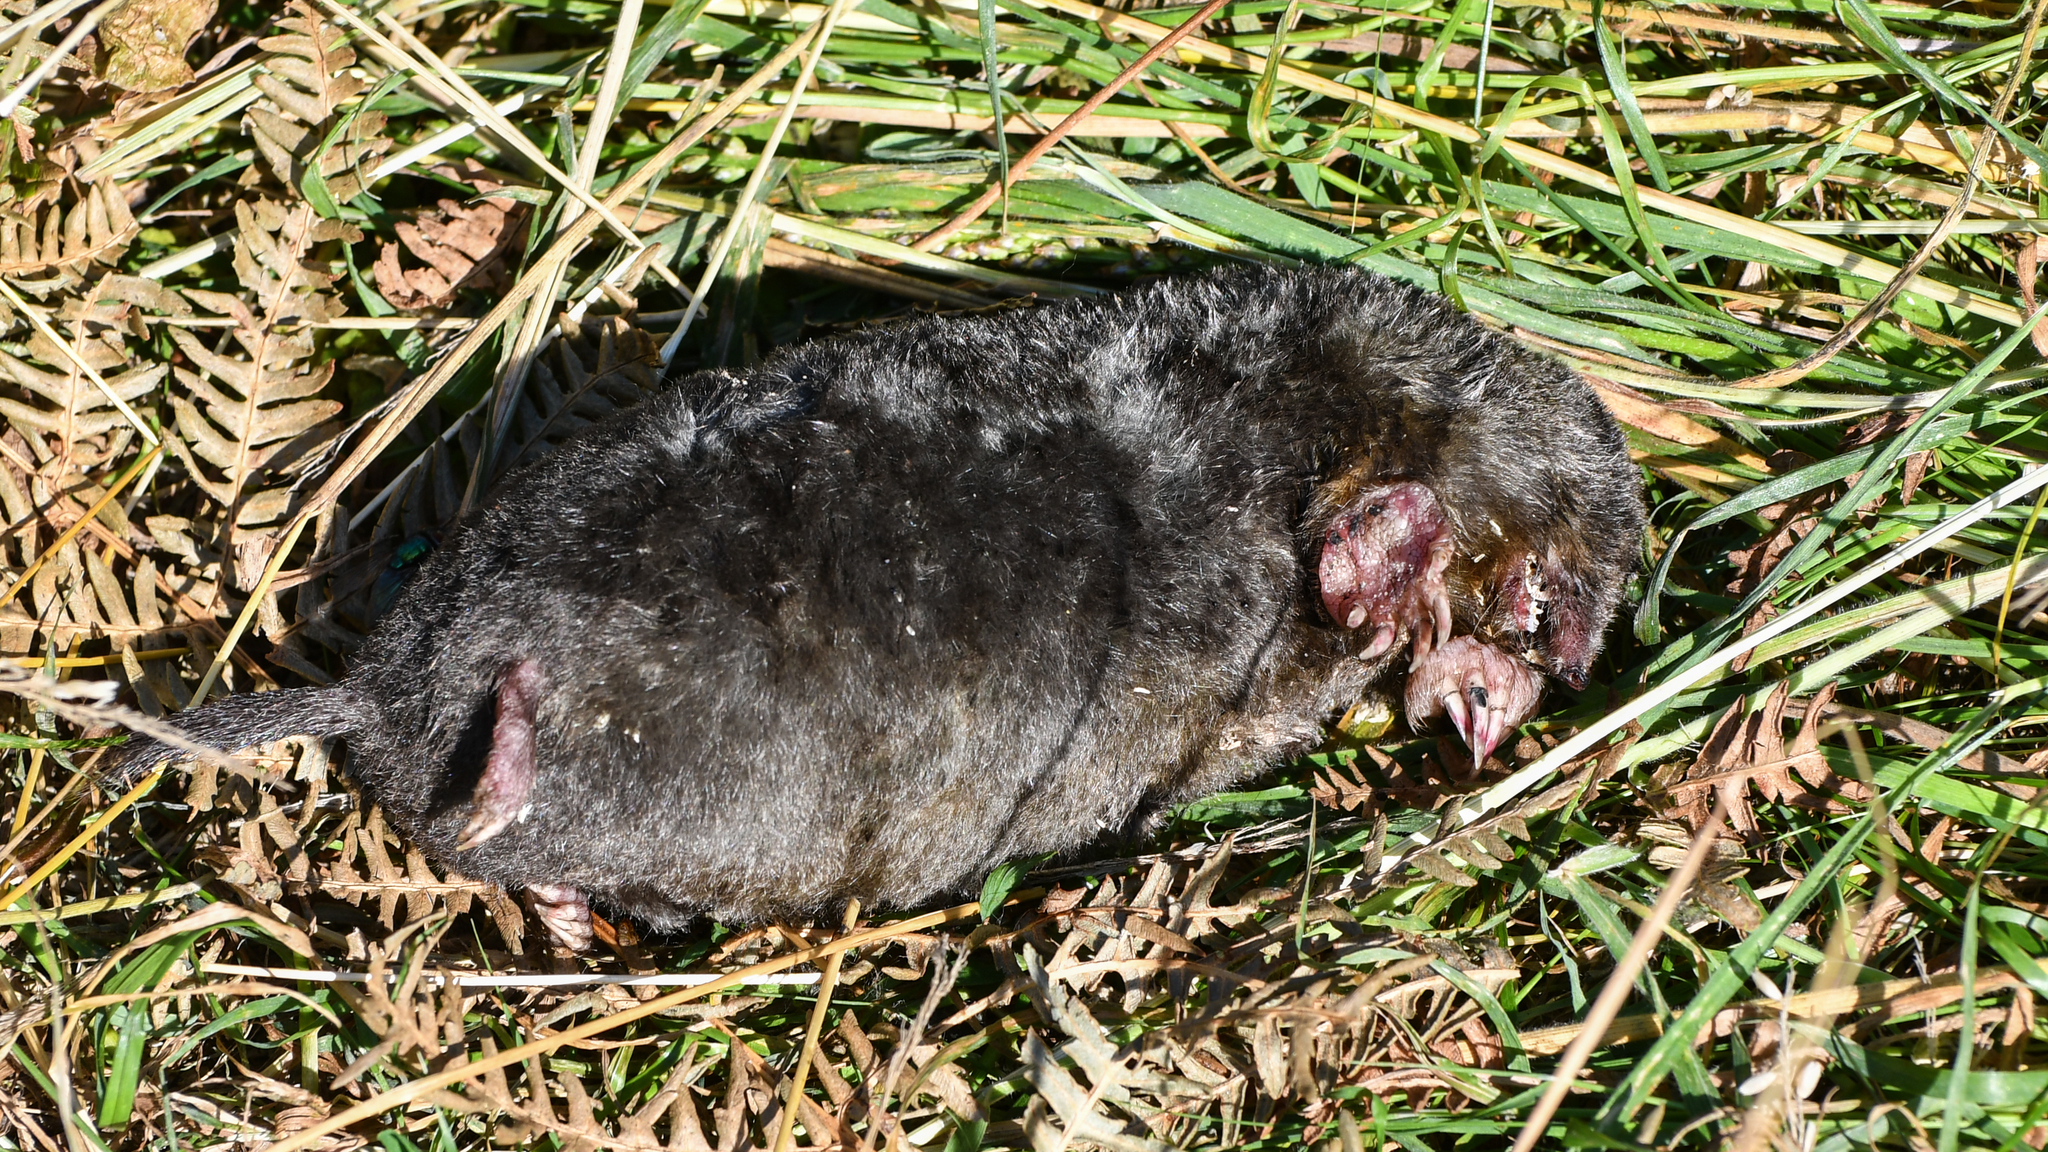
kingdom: Animalia
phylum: Chordata
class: Mammalia
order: Soricomorpha
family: Talpidae
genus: Talpa
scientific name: Talpa europaea
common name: European mole
